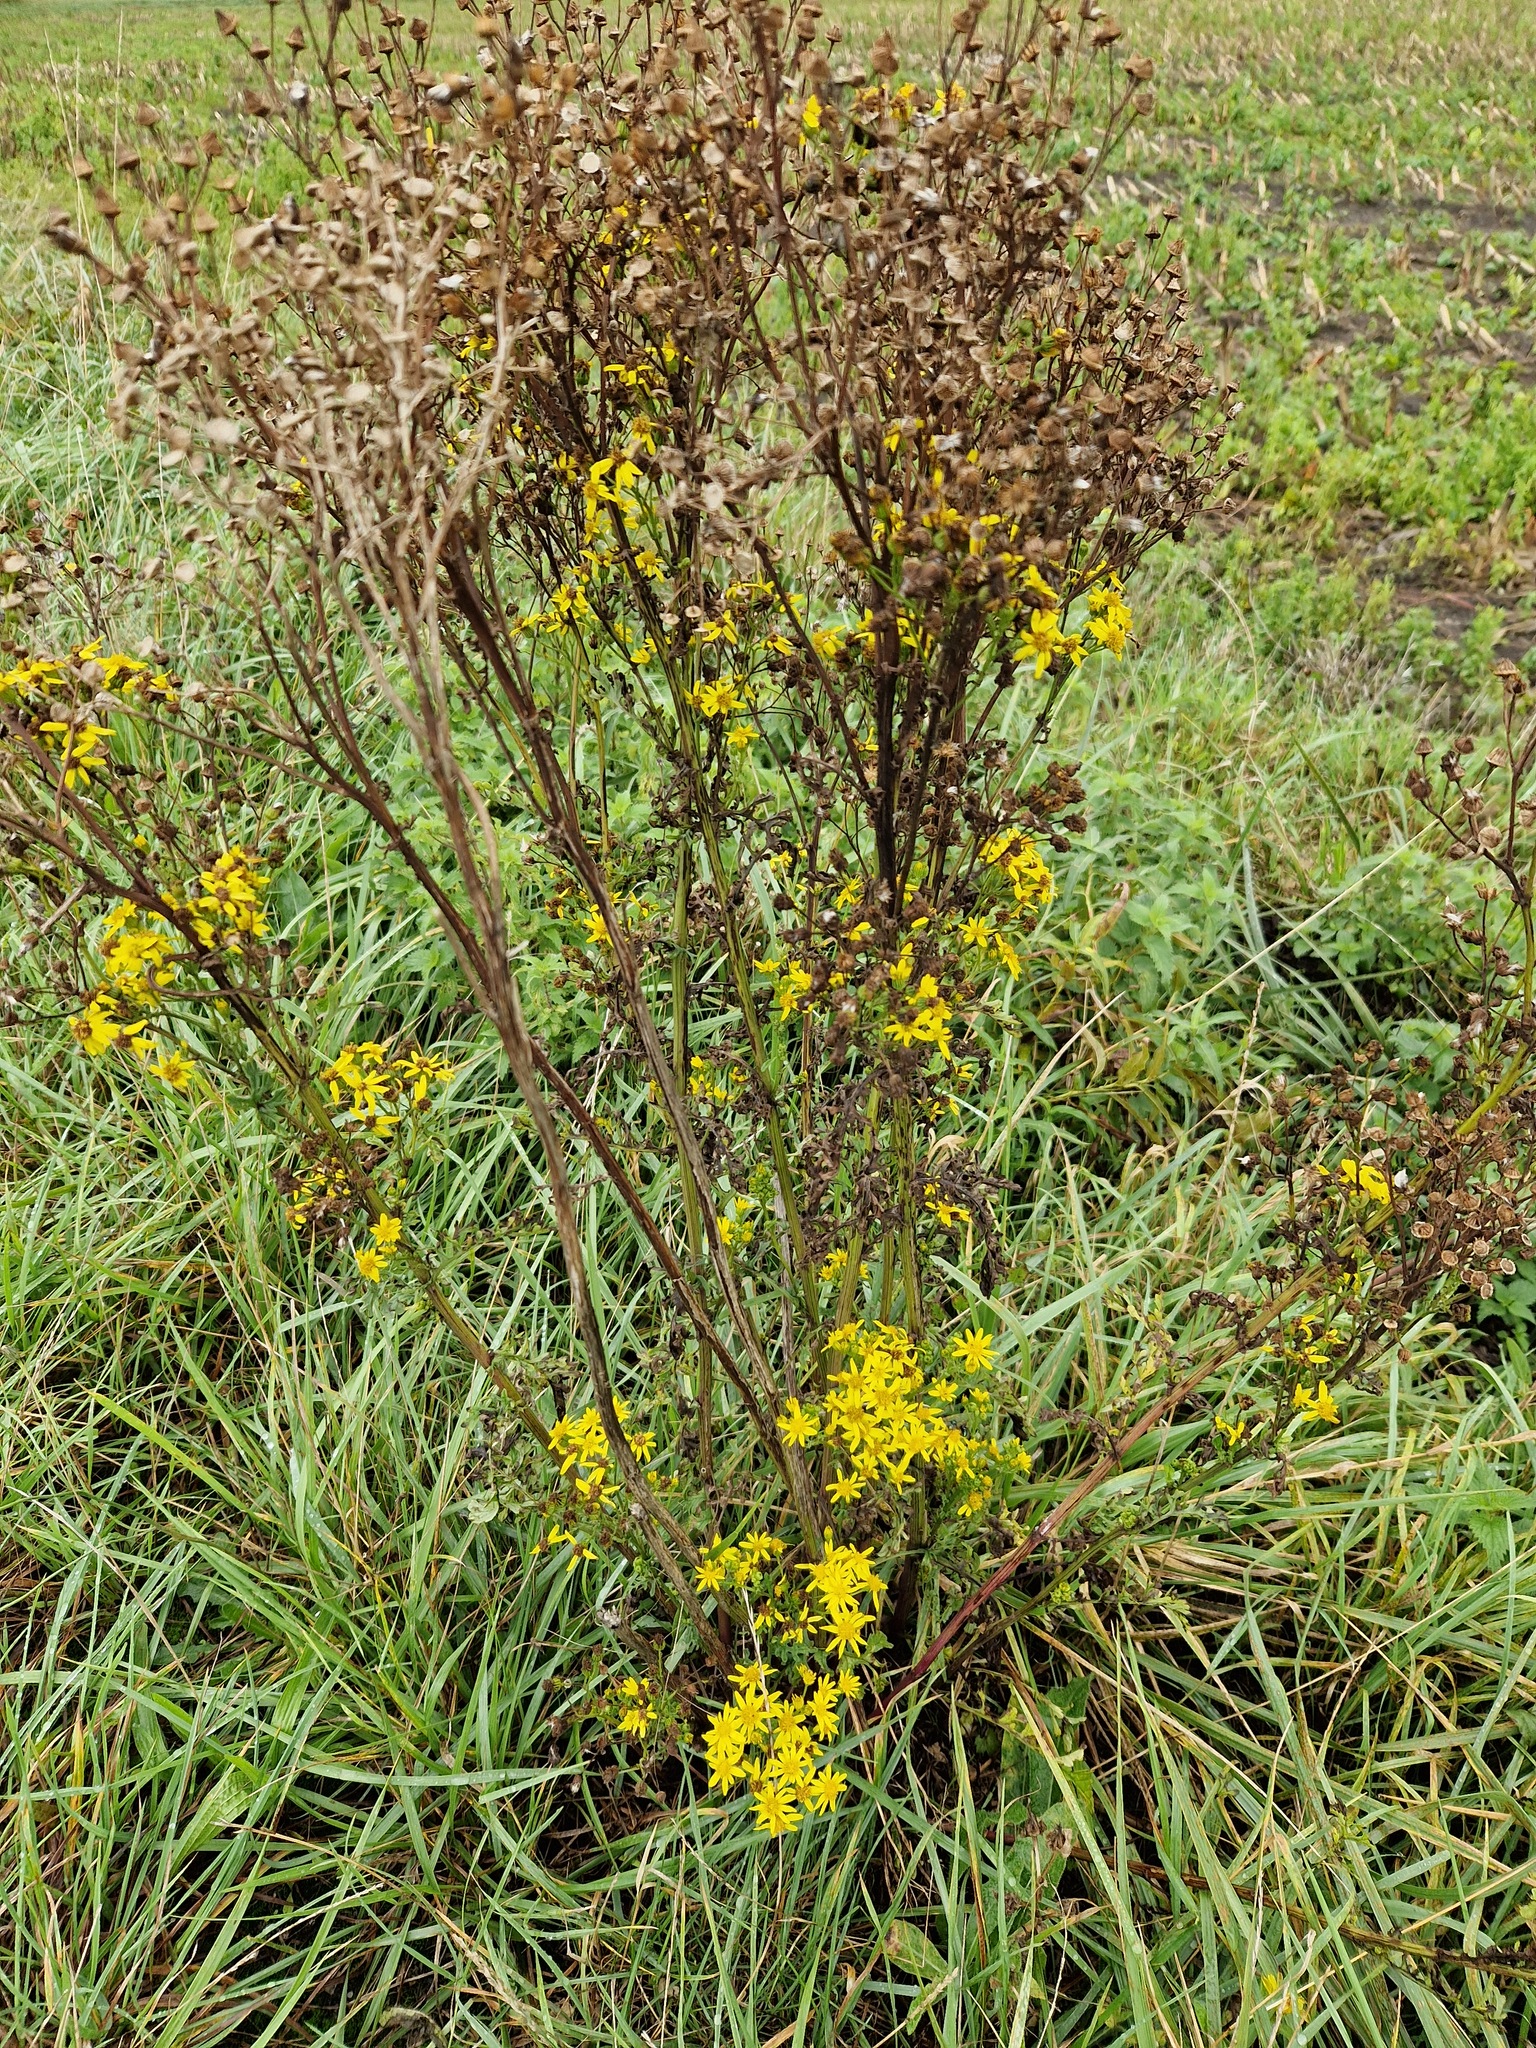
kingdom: Plantae
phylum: Tracheophyta
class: Magnoliopsida
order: Asterales
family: Asteraceae
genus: Jacobaea
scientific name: Jacobaea vulgaris
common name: Stinking willie
